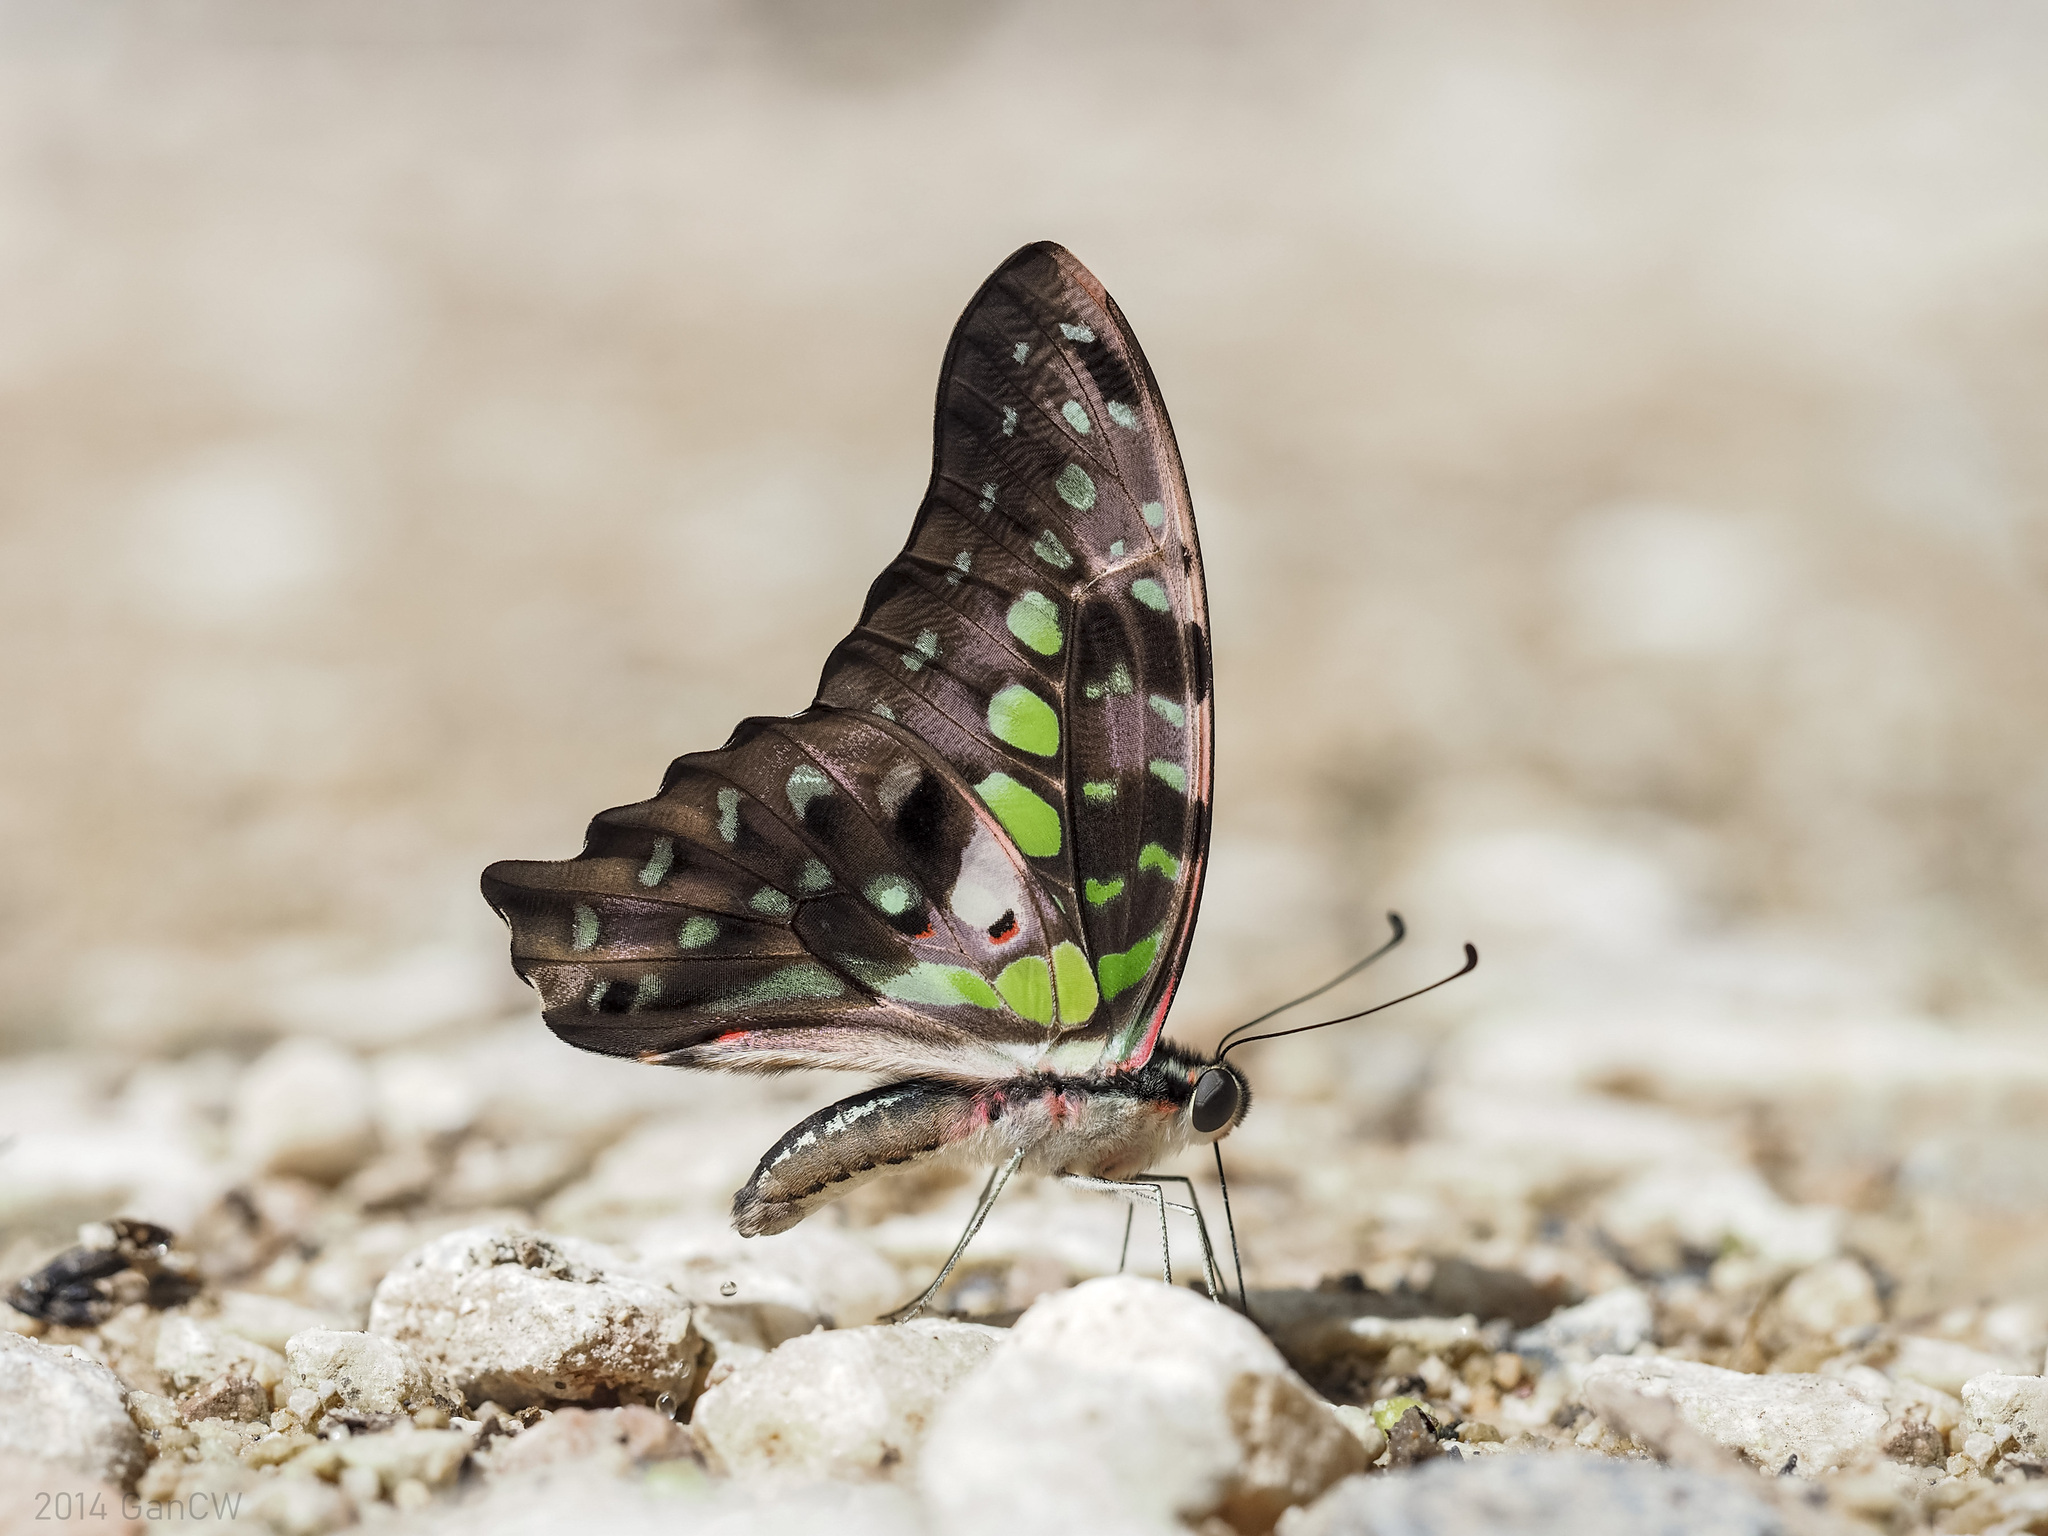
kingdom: Animalia
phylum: Arthropoda
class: Insecta
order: Lepidoptera
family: Papilionidae
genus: Graphium
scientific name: Graphium agamemnon
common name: Tailed jay
